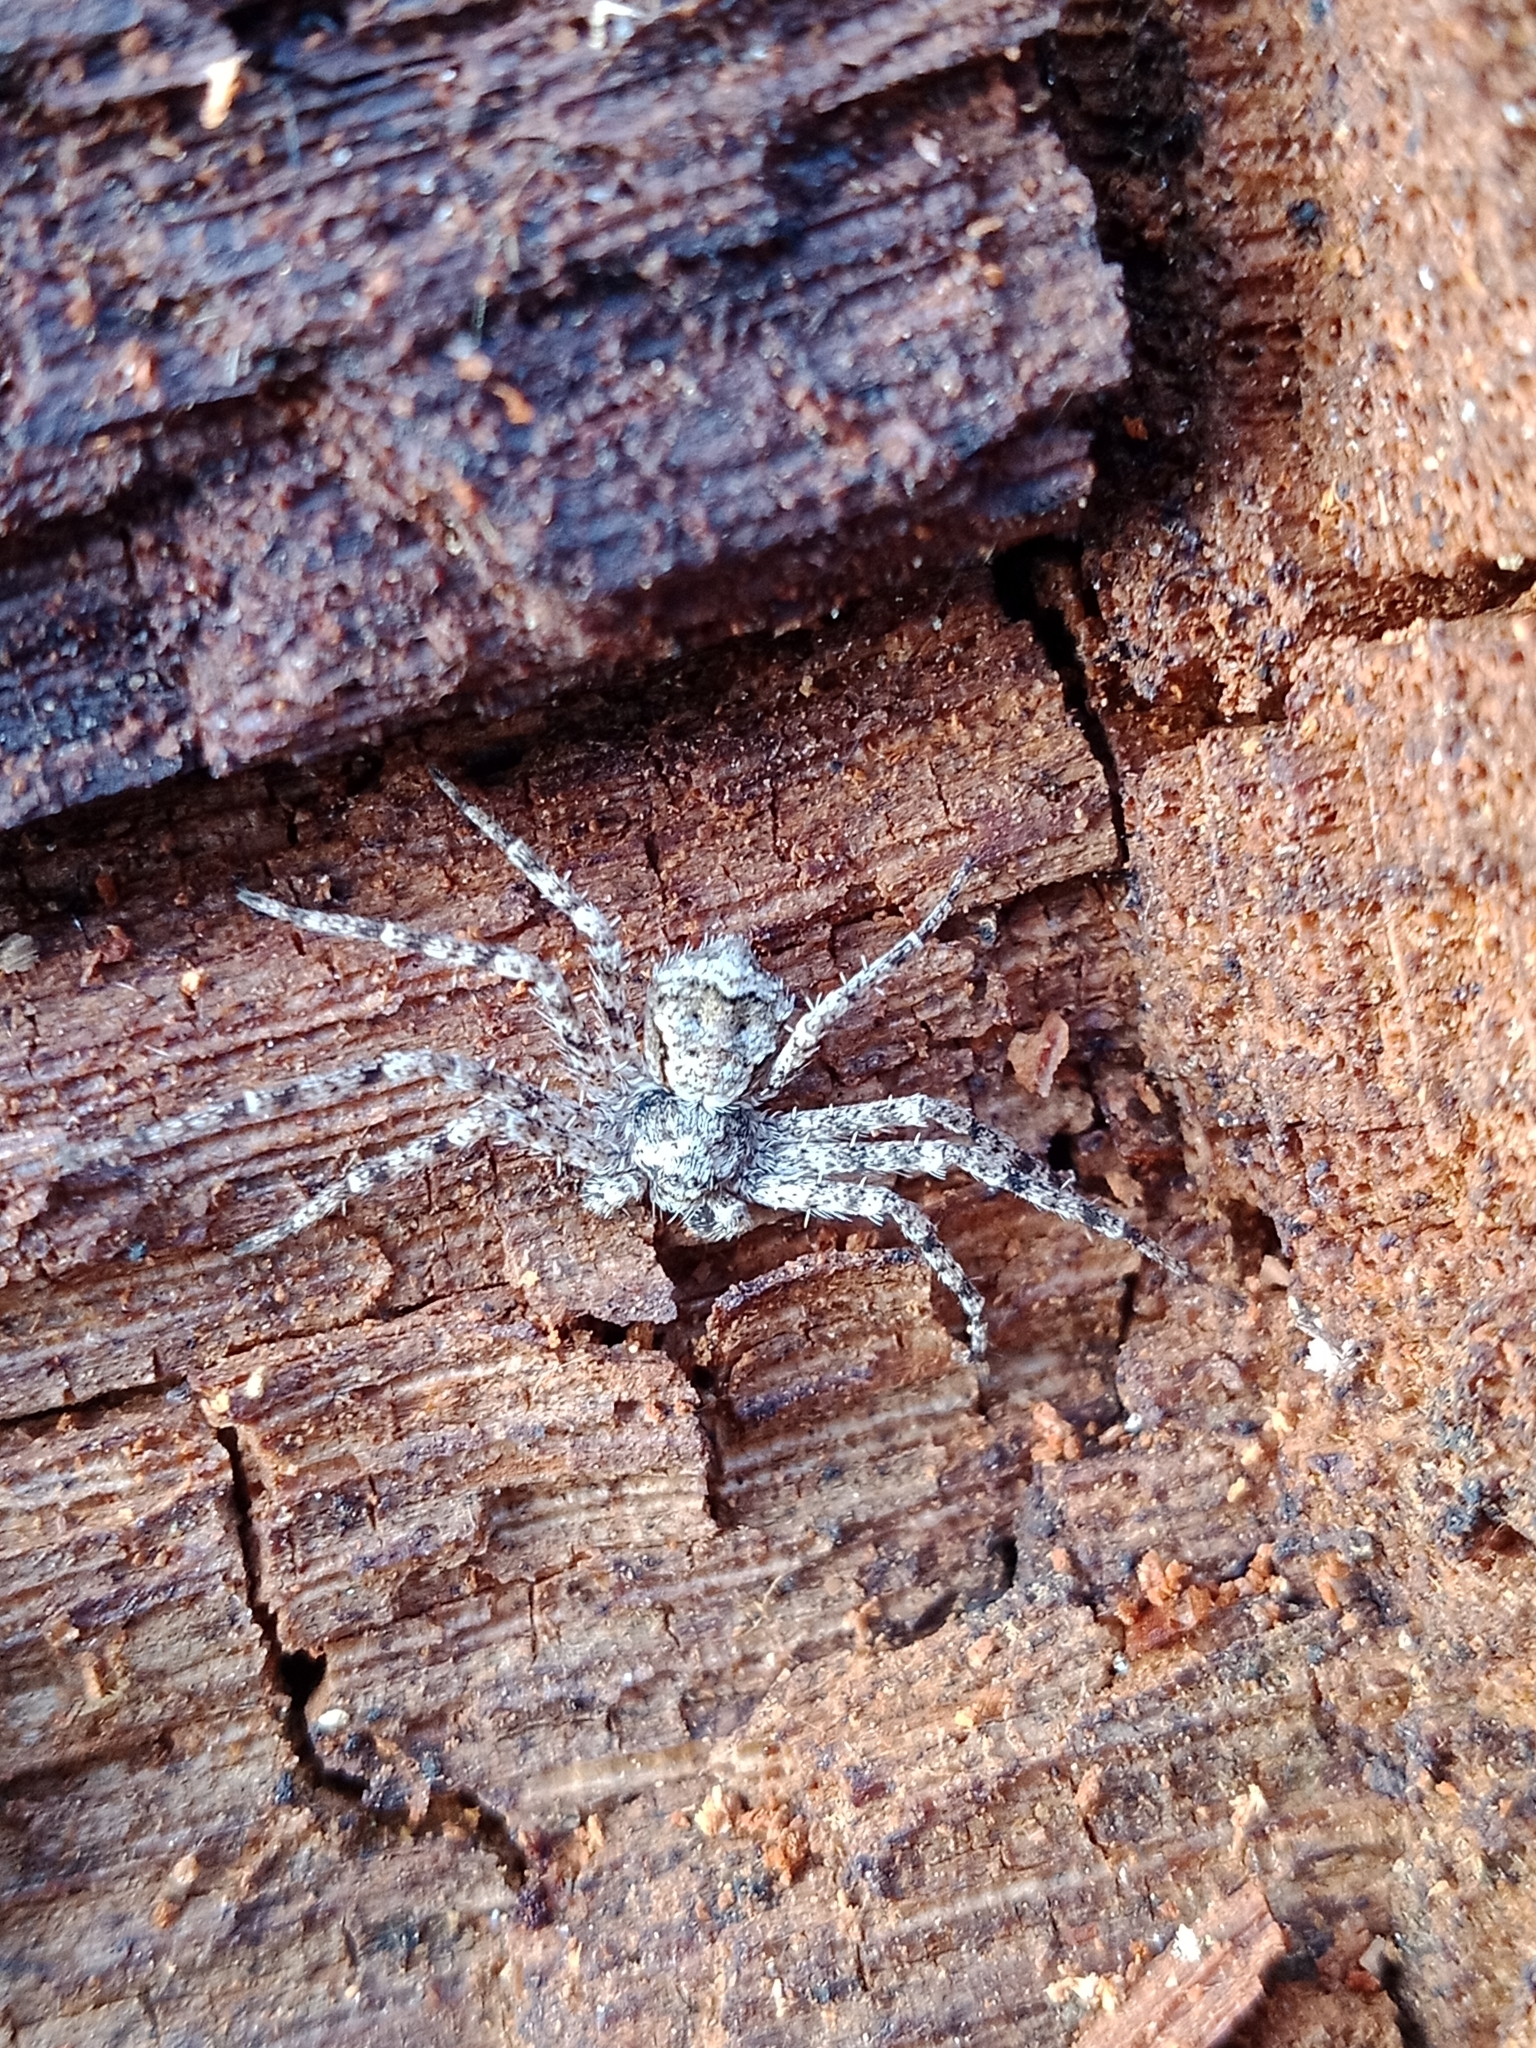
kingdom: Animalia
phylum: Arthropoda
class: Arachnida
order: Araneae
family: Philodromidae
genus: Philodromus
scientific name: Philodromus poecilus
